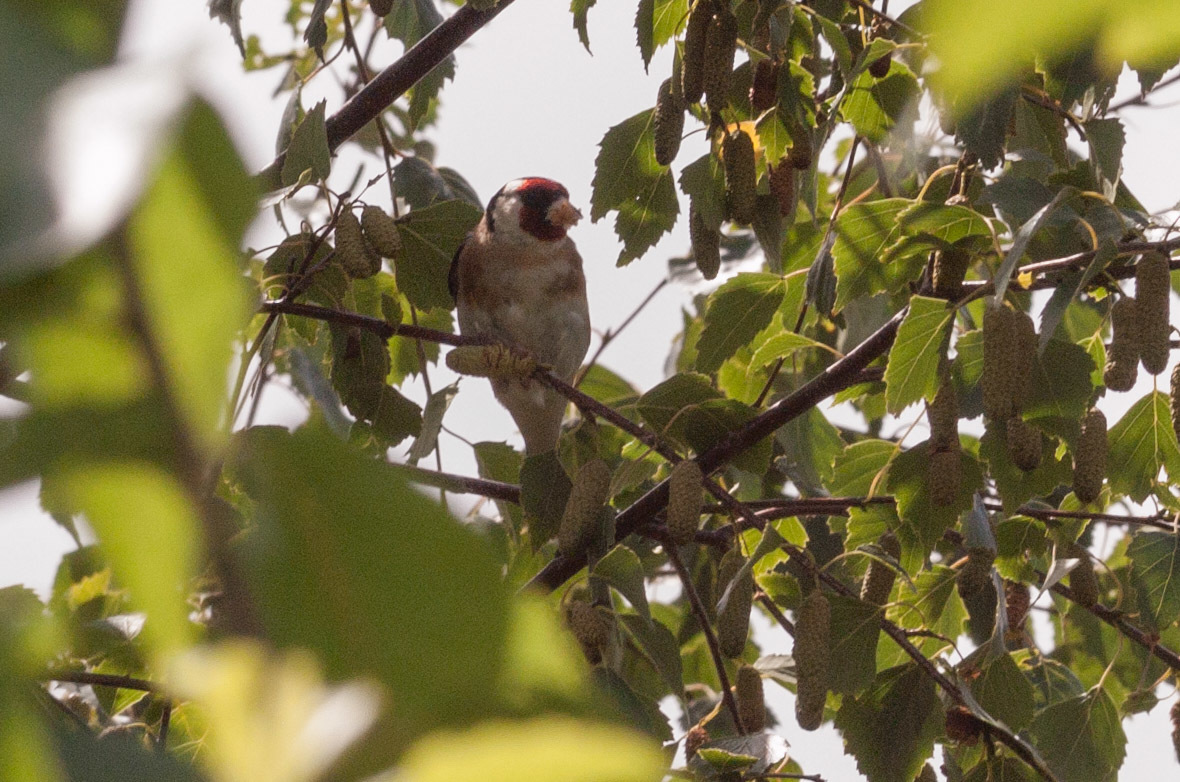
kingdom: Animalia
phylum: Chordata
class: Aves
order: Passeriformes
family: Fringillidae
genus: Carduelis
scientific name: Carduelis carduelis
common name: European goldfinch
